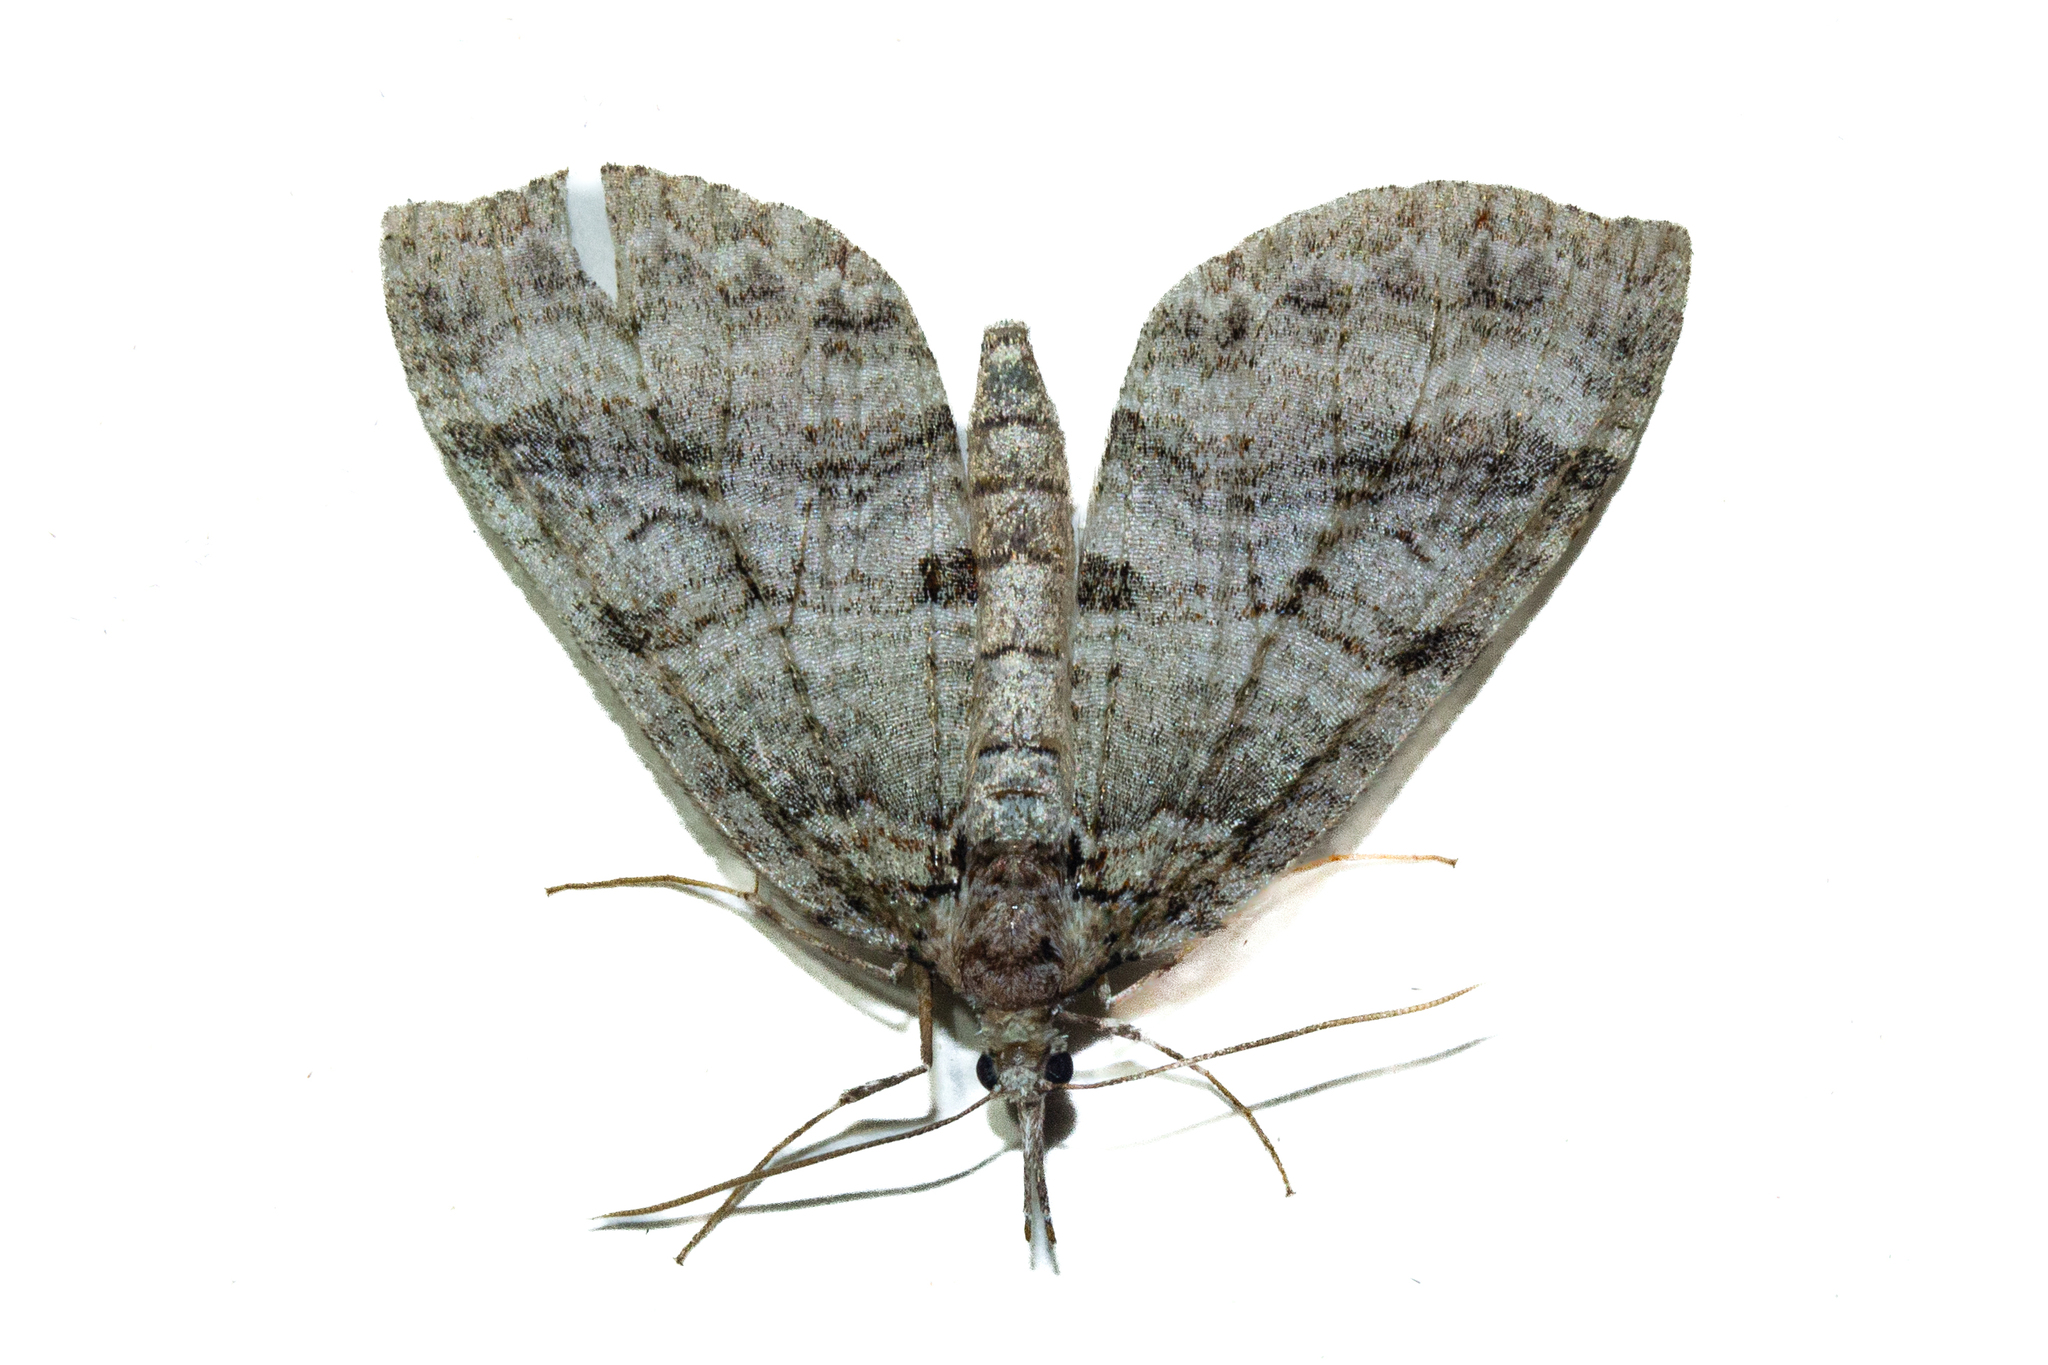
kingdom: Animalia
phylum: Arthropoda
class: Insecta
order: Lepidoptera
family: Geometridae
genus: Tatosoma
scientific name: Tatosoma fasciata
